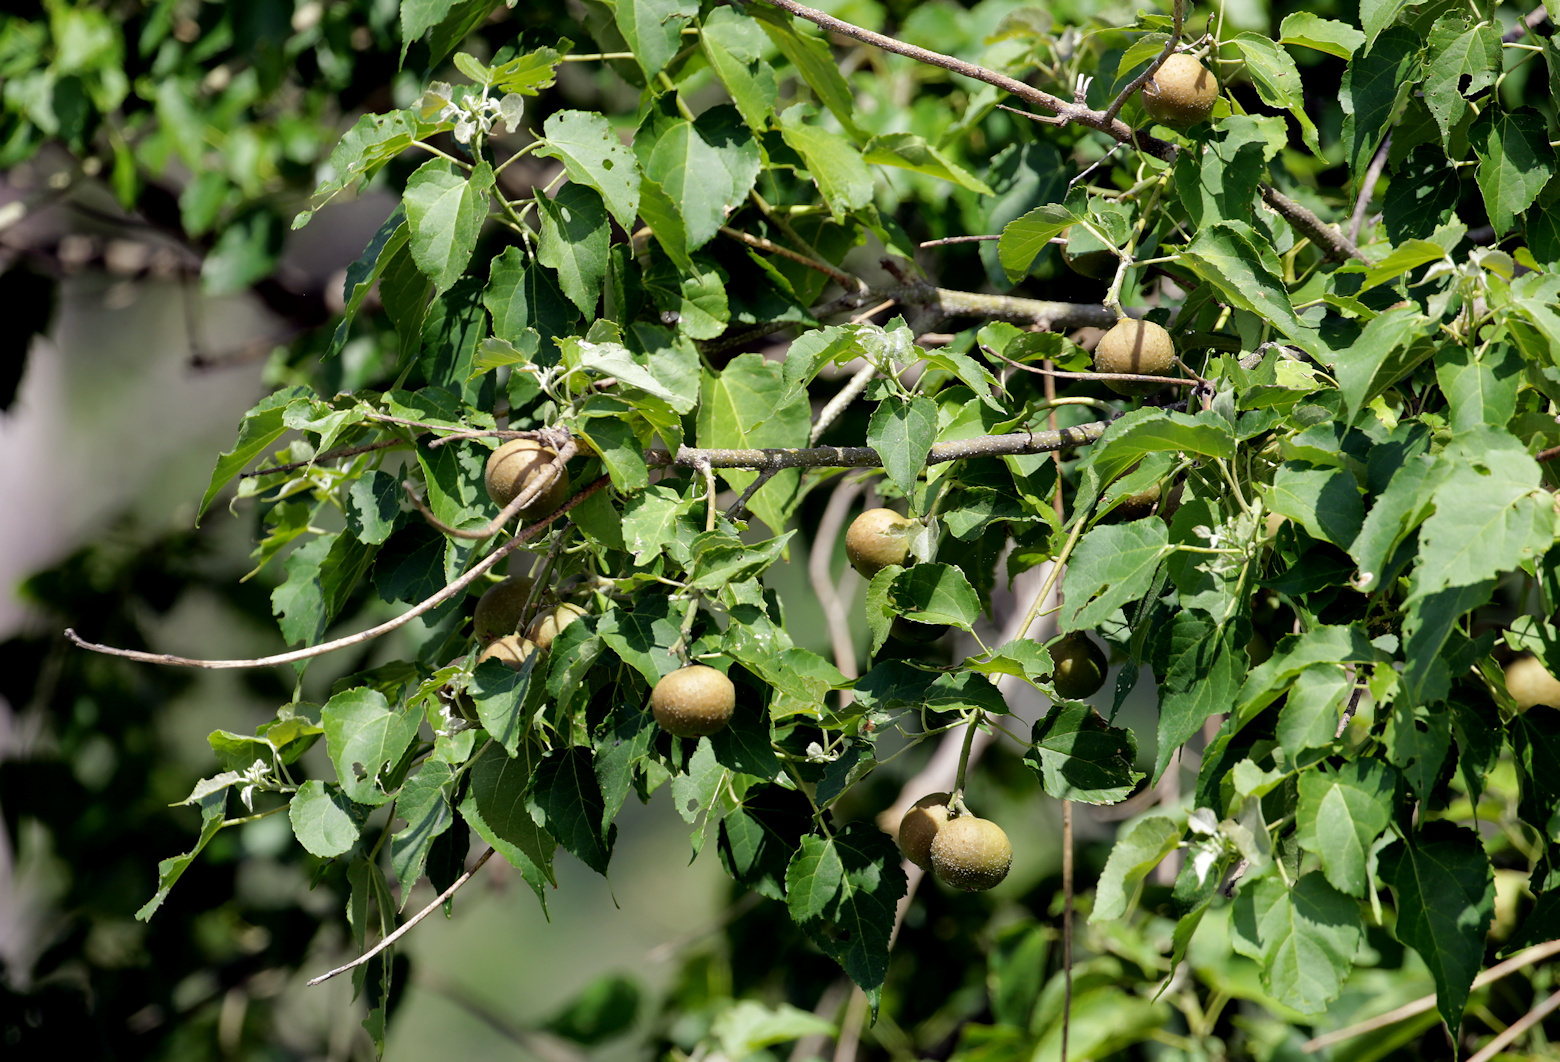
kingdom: Plantae
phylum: Tracheophyta
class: Magnoliopsida
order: Malpighiales
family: Euphorbiaceae
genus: Croton
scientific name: Croton megalobotrys
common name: Large fever berry
